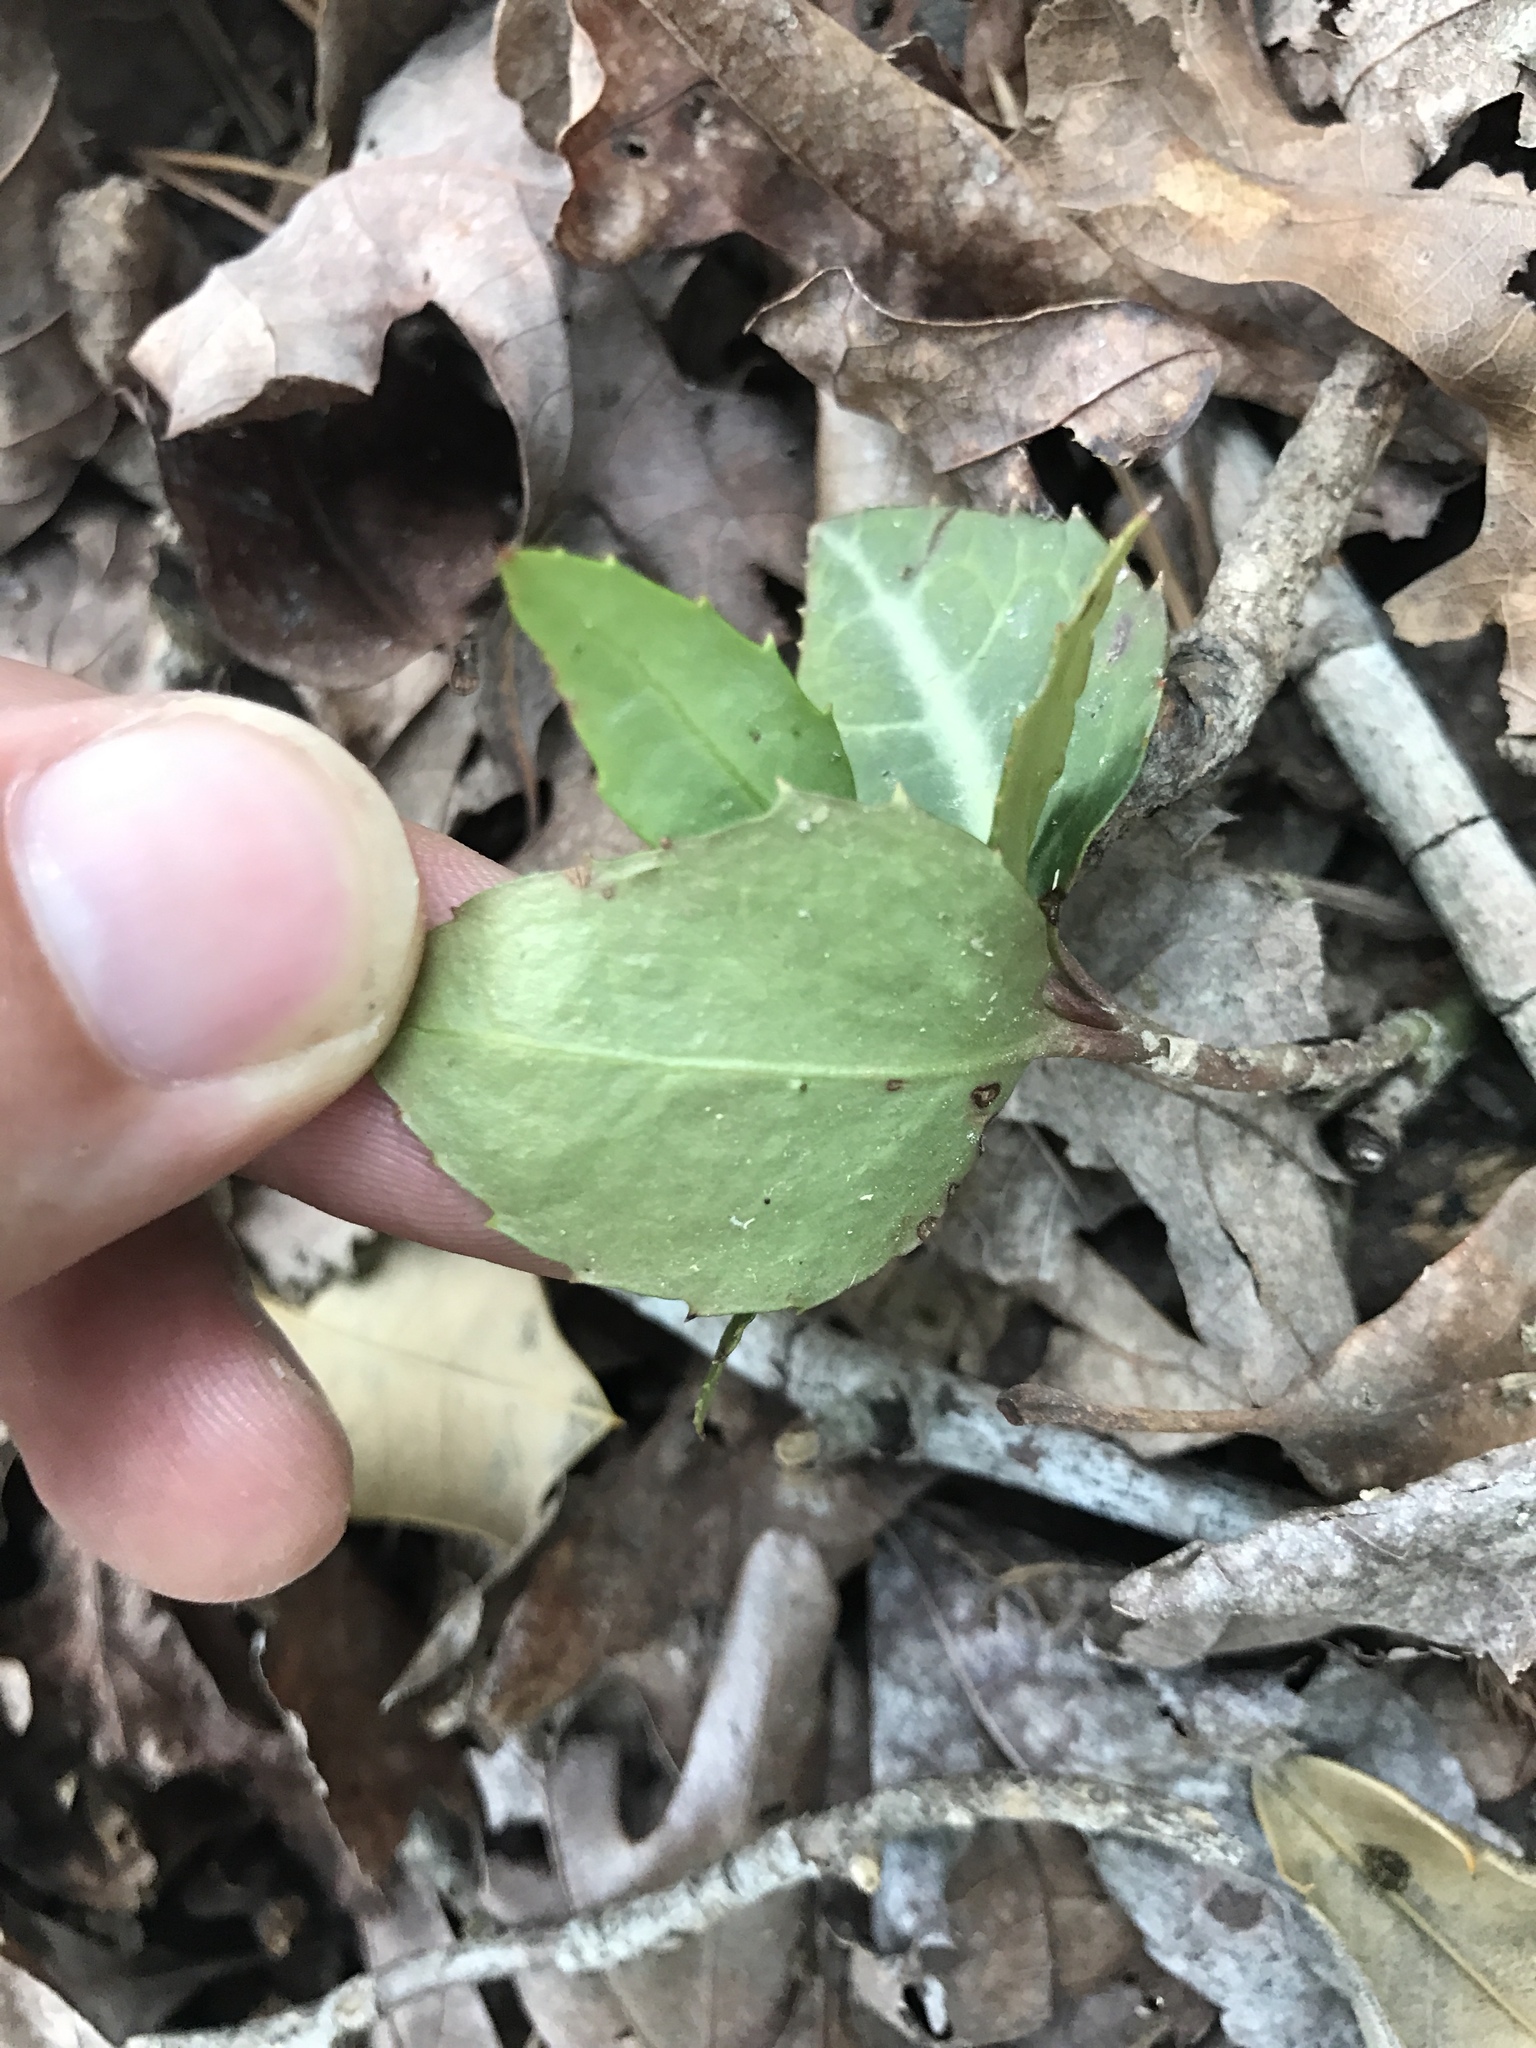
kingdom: Plantae
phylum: Tracheophyta
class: Magnoliopsida
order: Ericales
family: Ericaceae
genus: Chimaphila
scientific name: Chimaphila maculata
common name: Spotted pipsissewa
